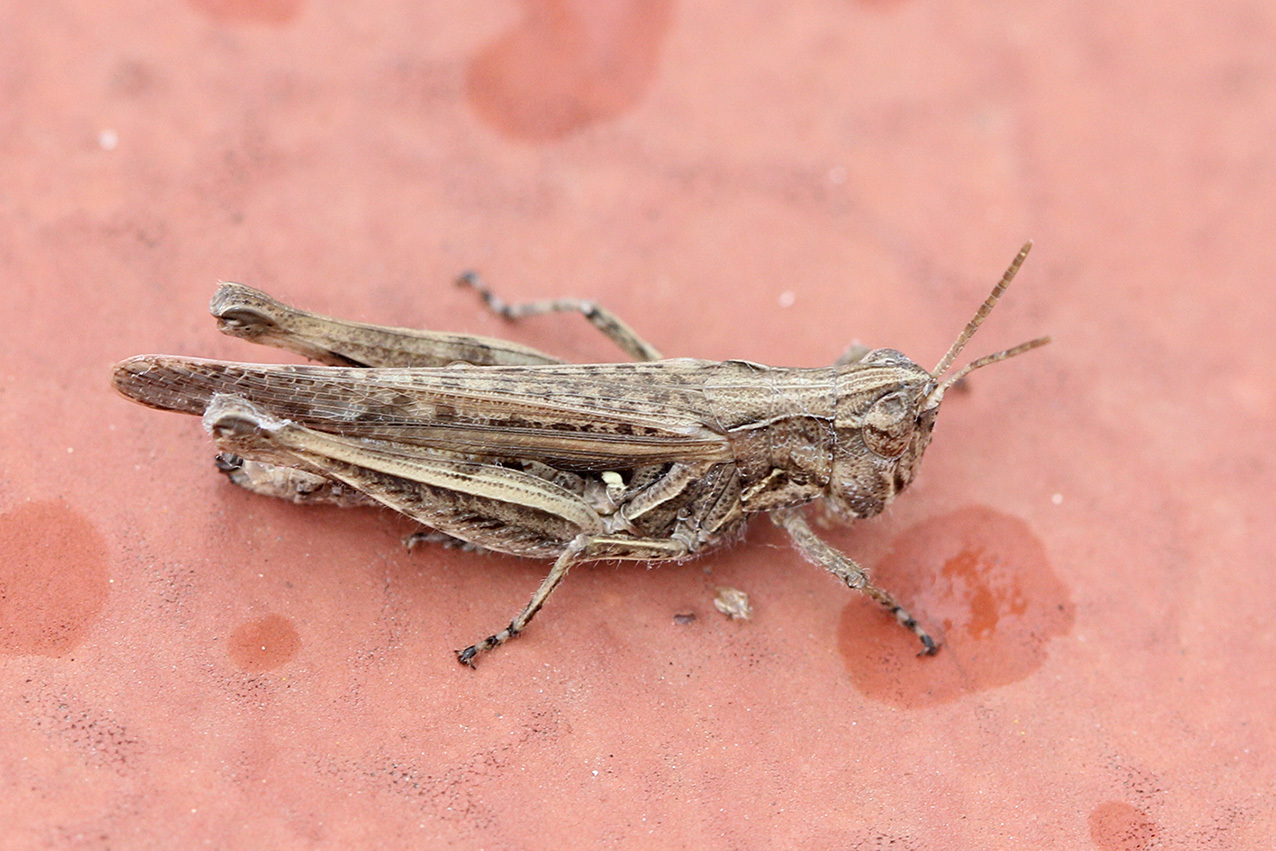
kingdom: Animalia
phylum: Arthropoda
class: Insecta
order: Orthoptera
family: Acrididae
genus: Orphulella
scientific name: Orphulella punctata
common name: Slant-faced grasshopper
